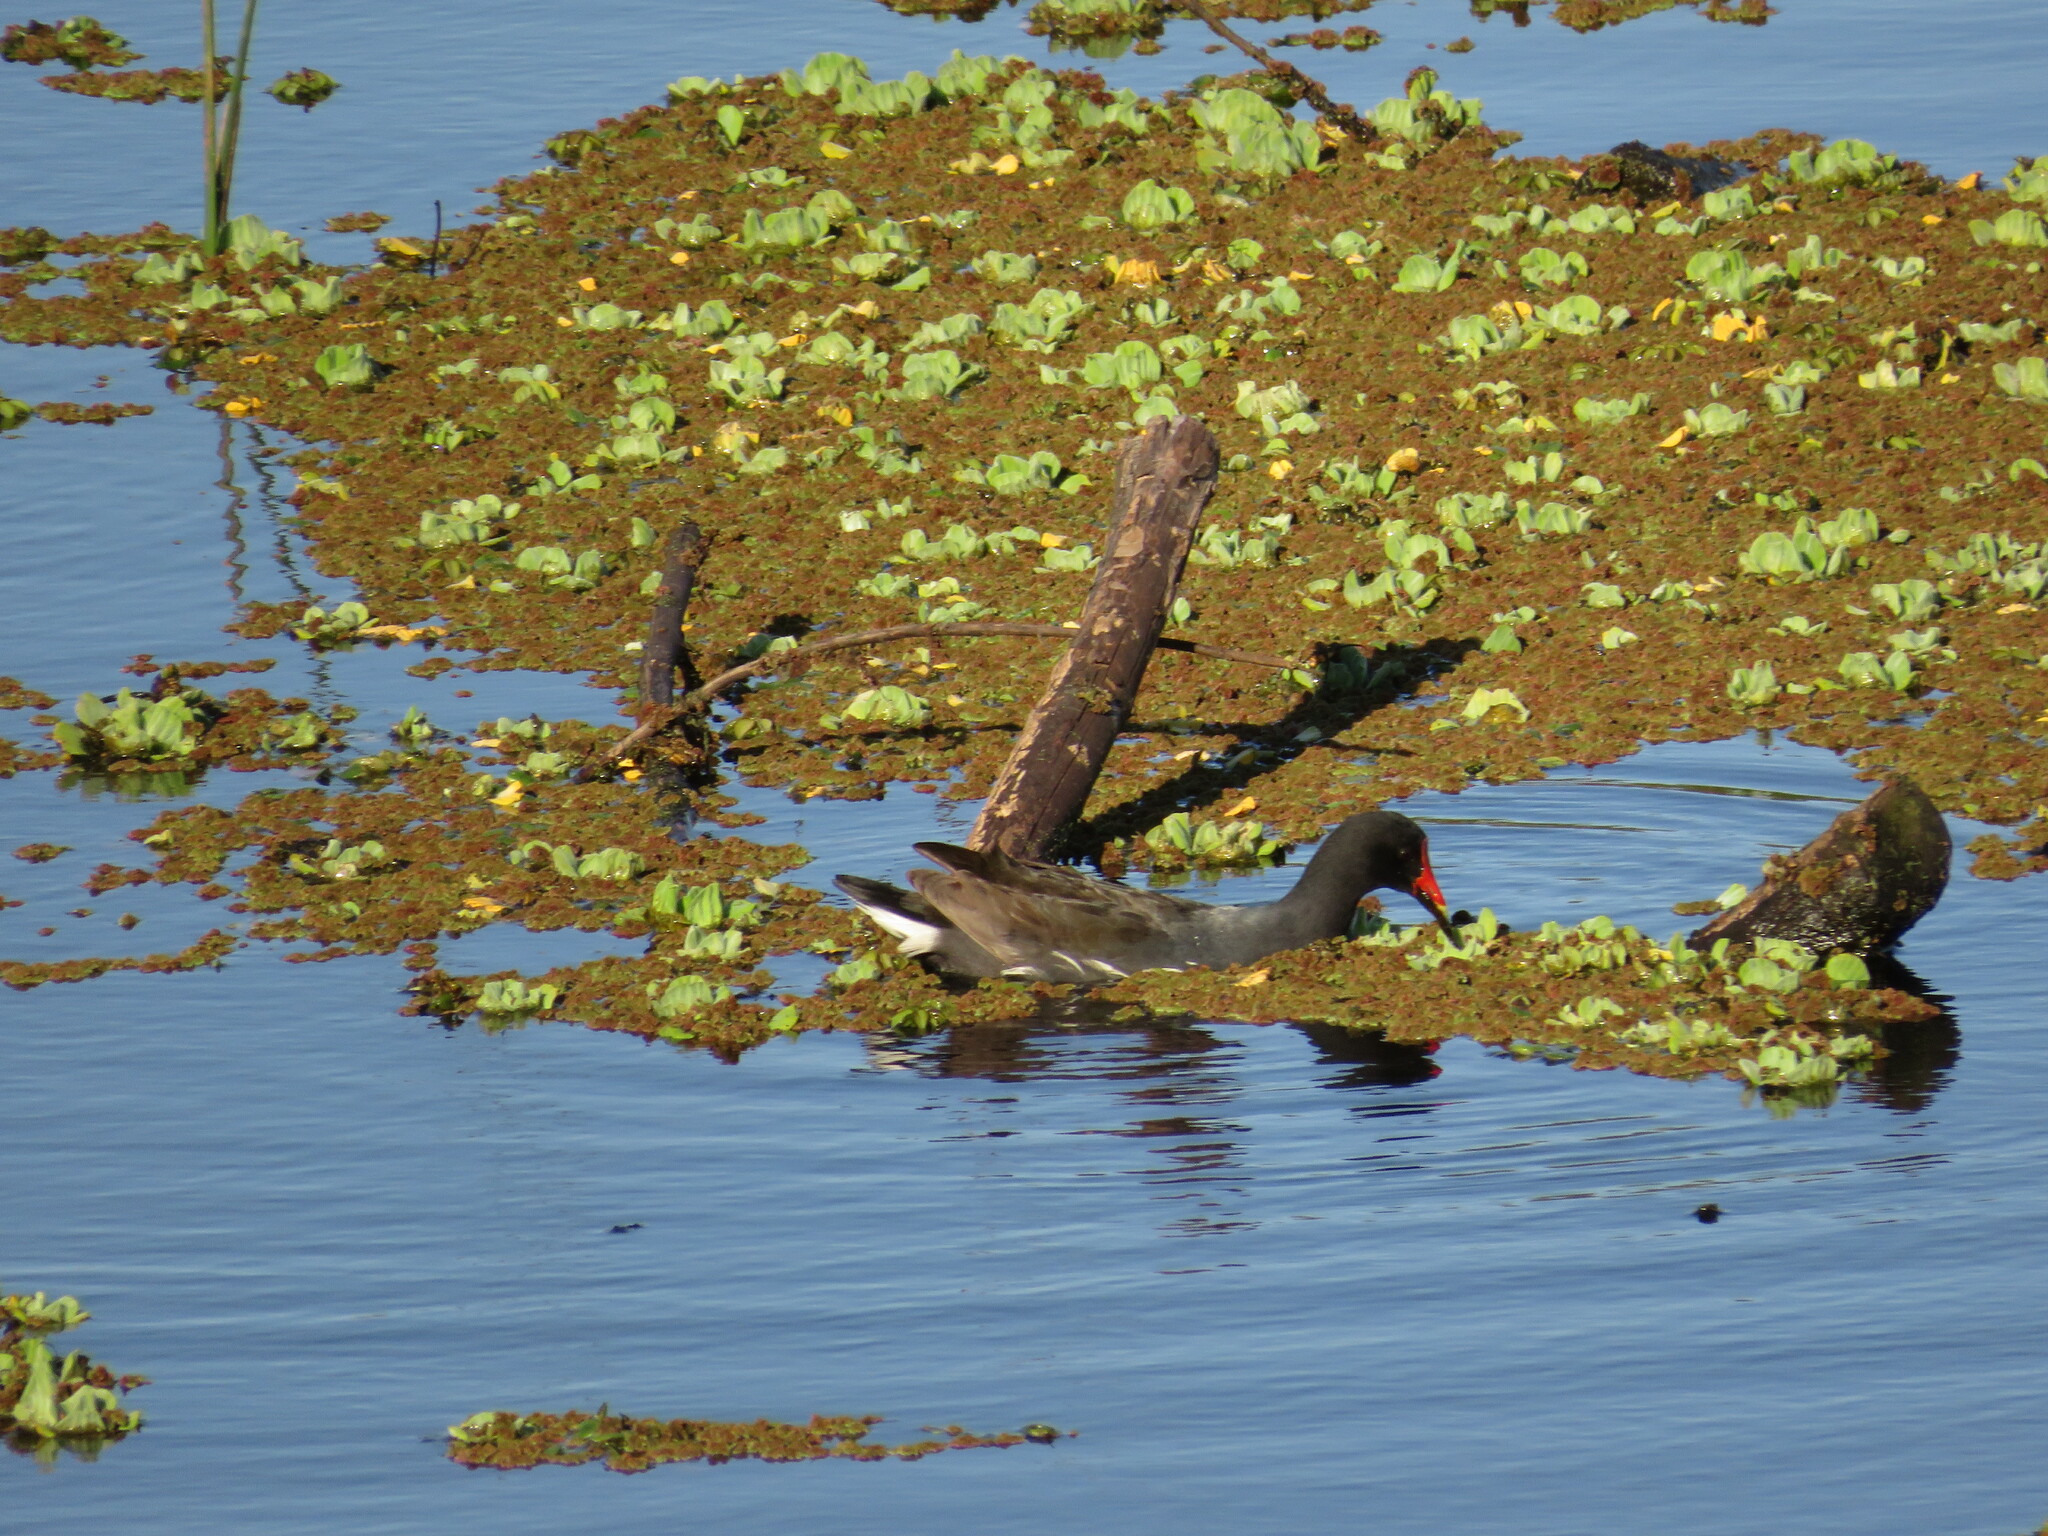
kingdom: Animalia
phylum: Chordata
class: Aves
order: Gruiformes
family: Rallidae
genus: Gallinula
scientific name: Gallinula chloropus
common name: Common moorhen
